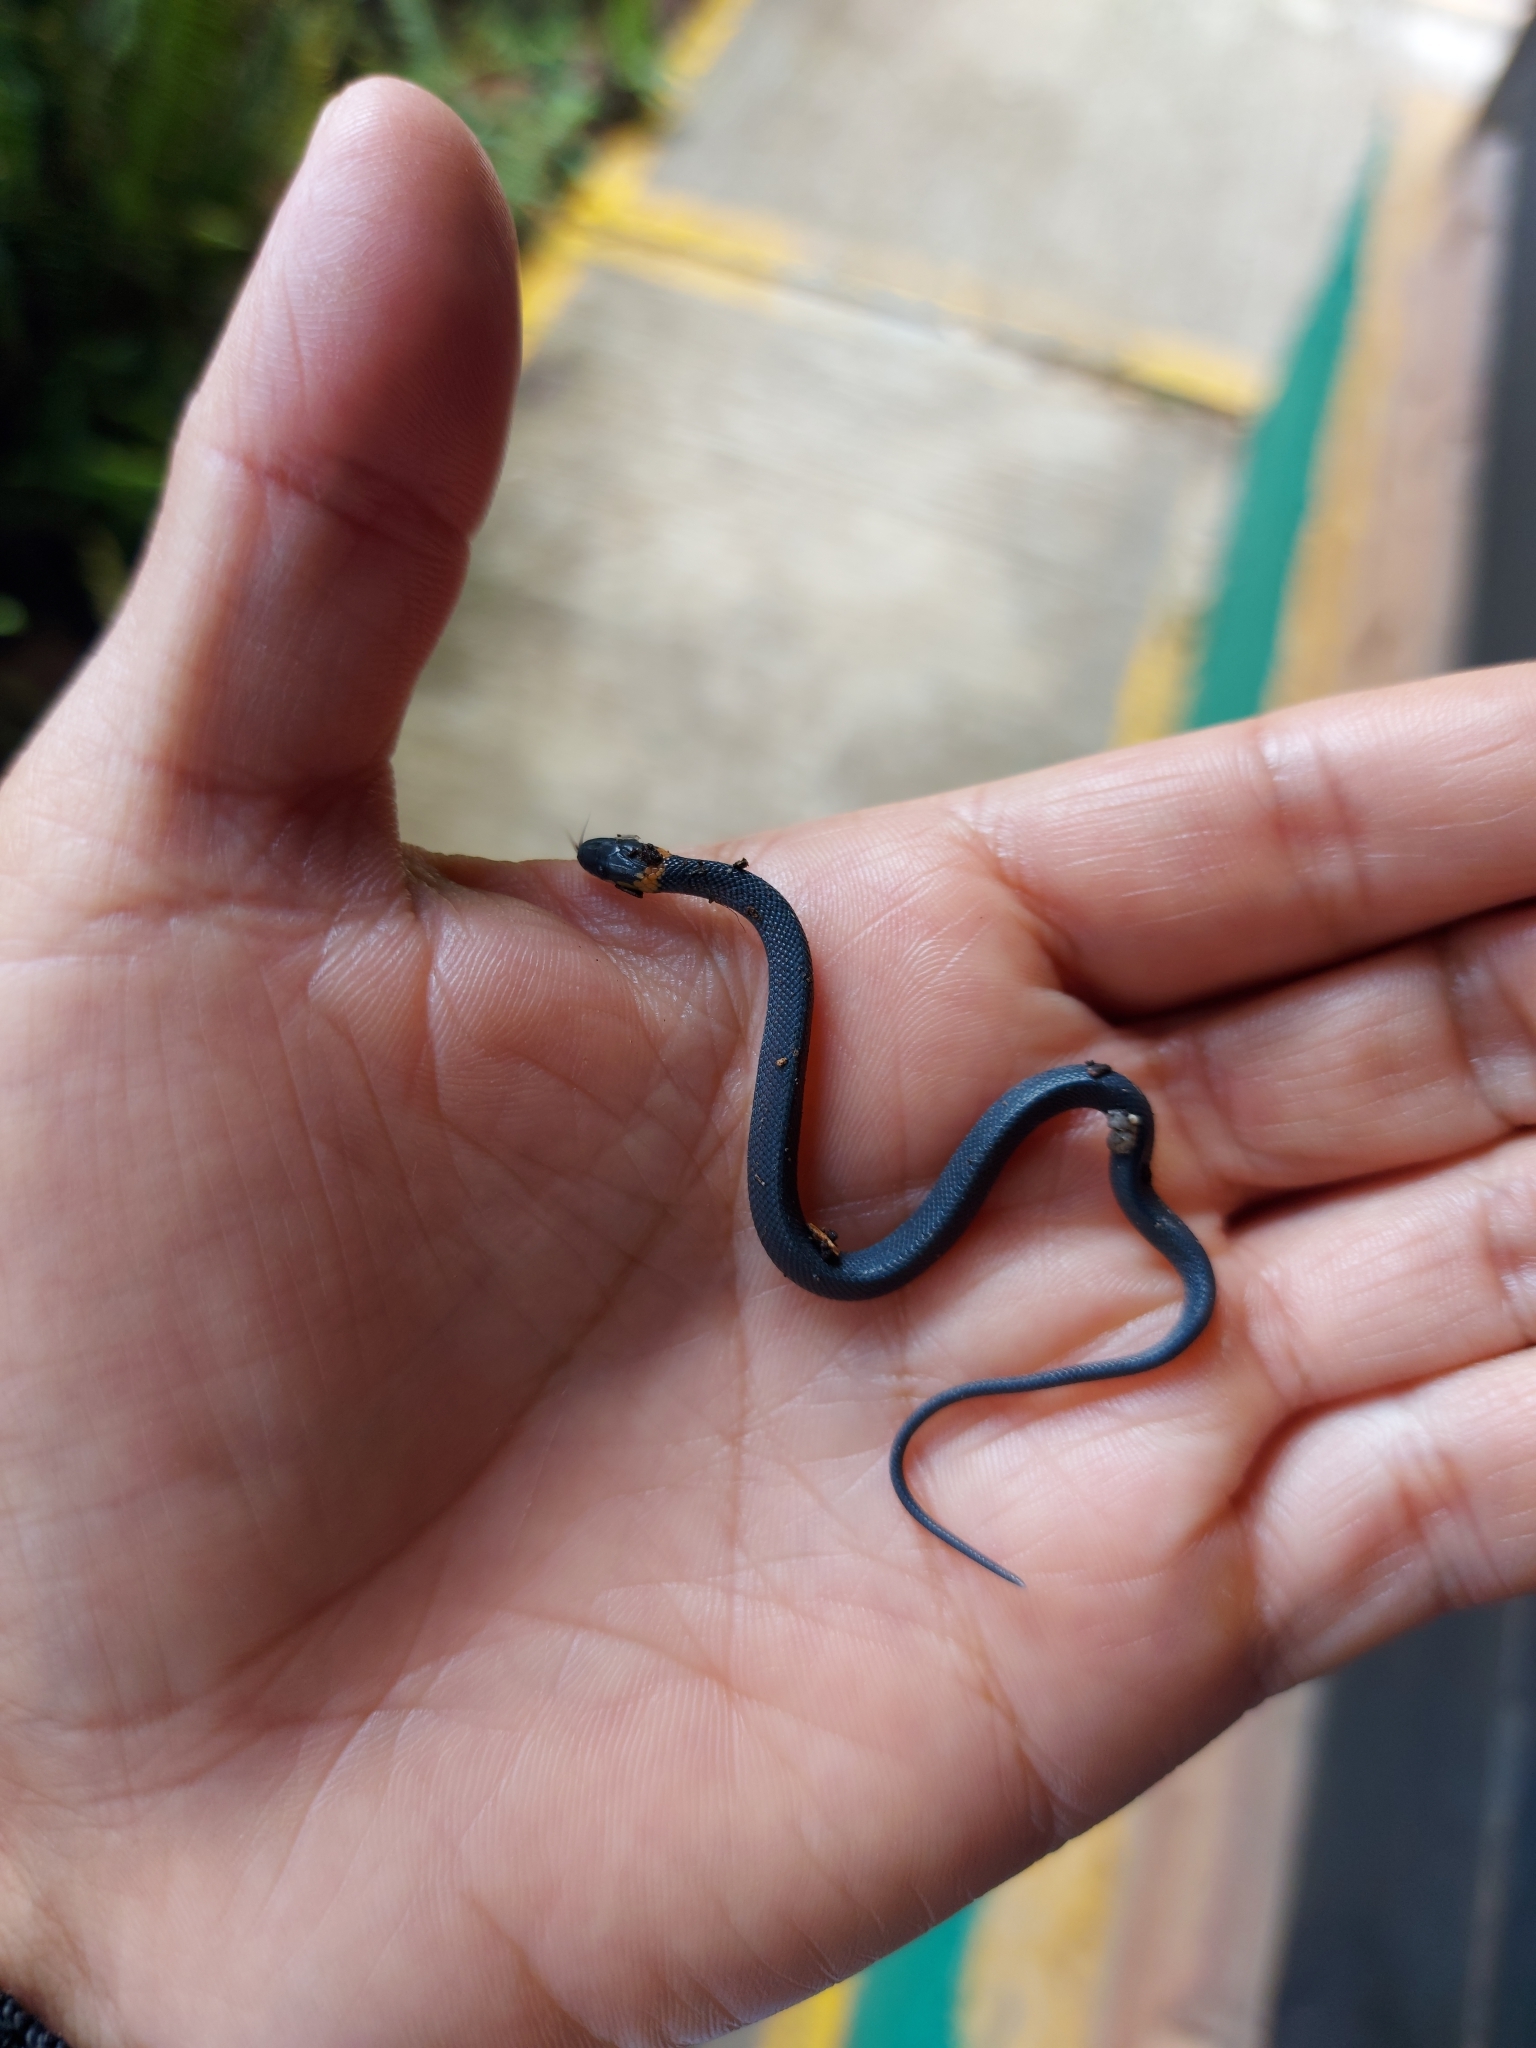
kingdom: Animalia
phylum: Chordata
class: Squamata
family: Colubridae
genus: Ninia
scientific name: Ninia diademata
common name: Ringneck coffee snake
